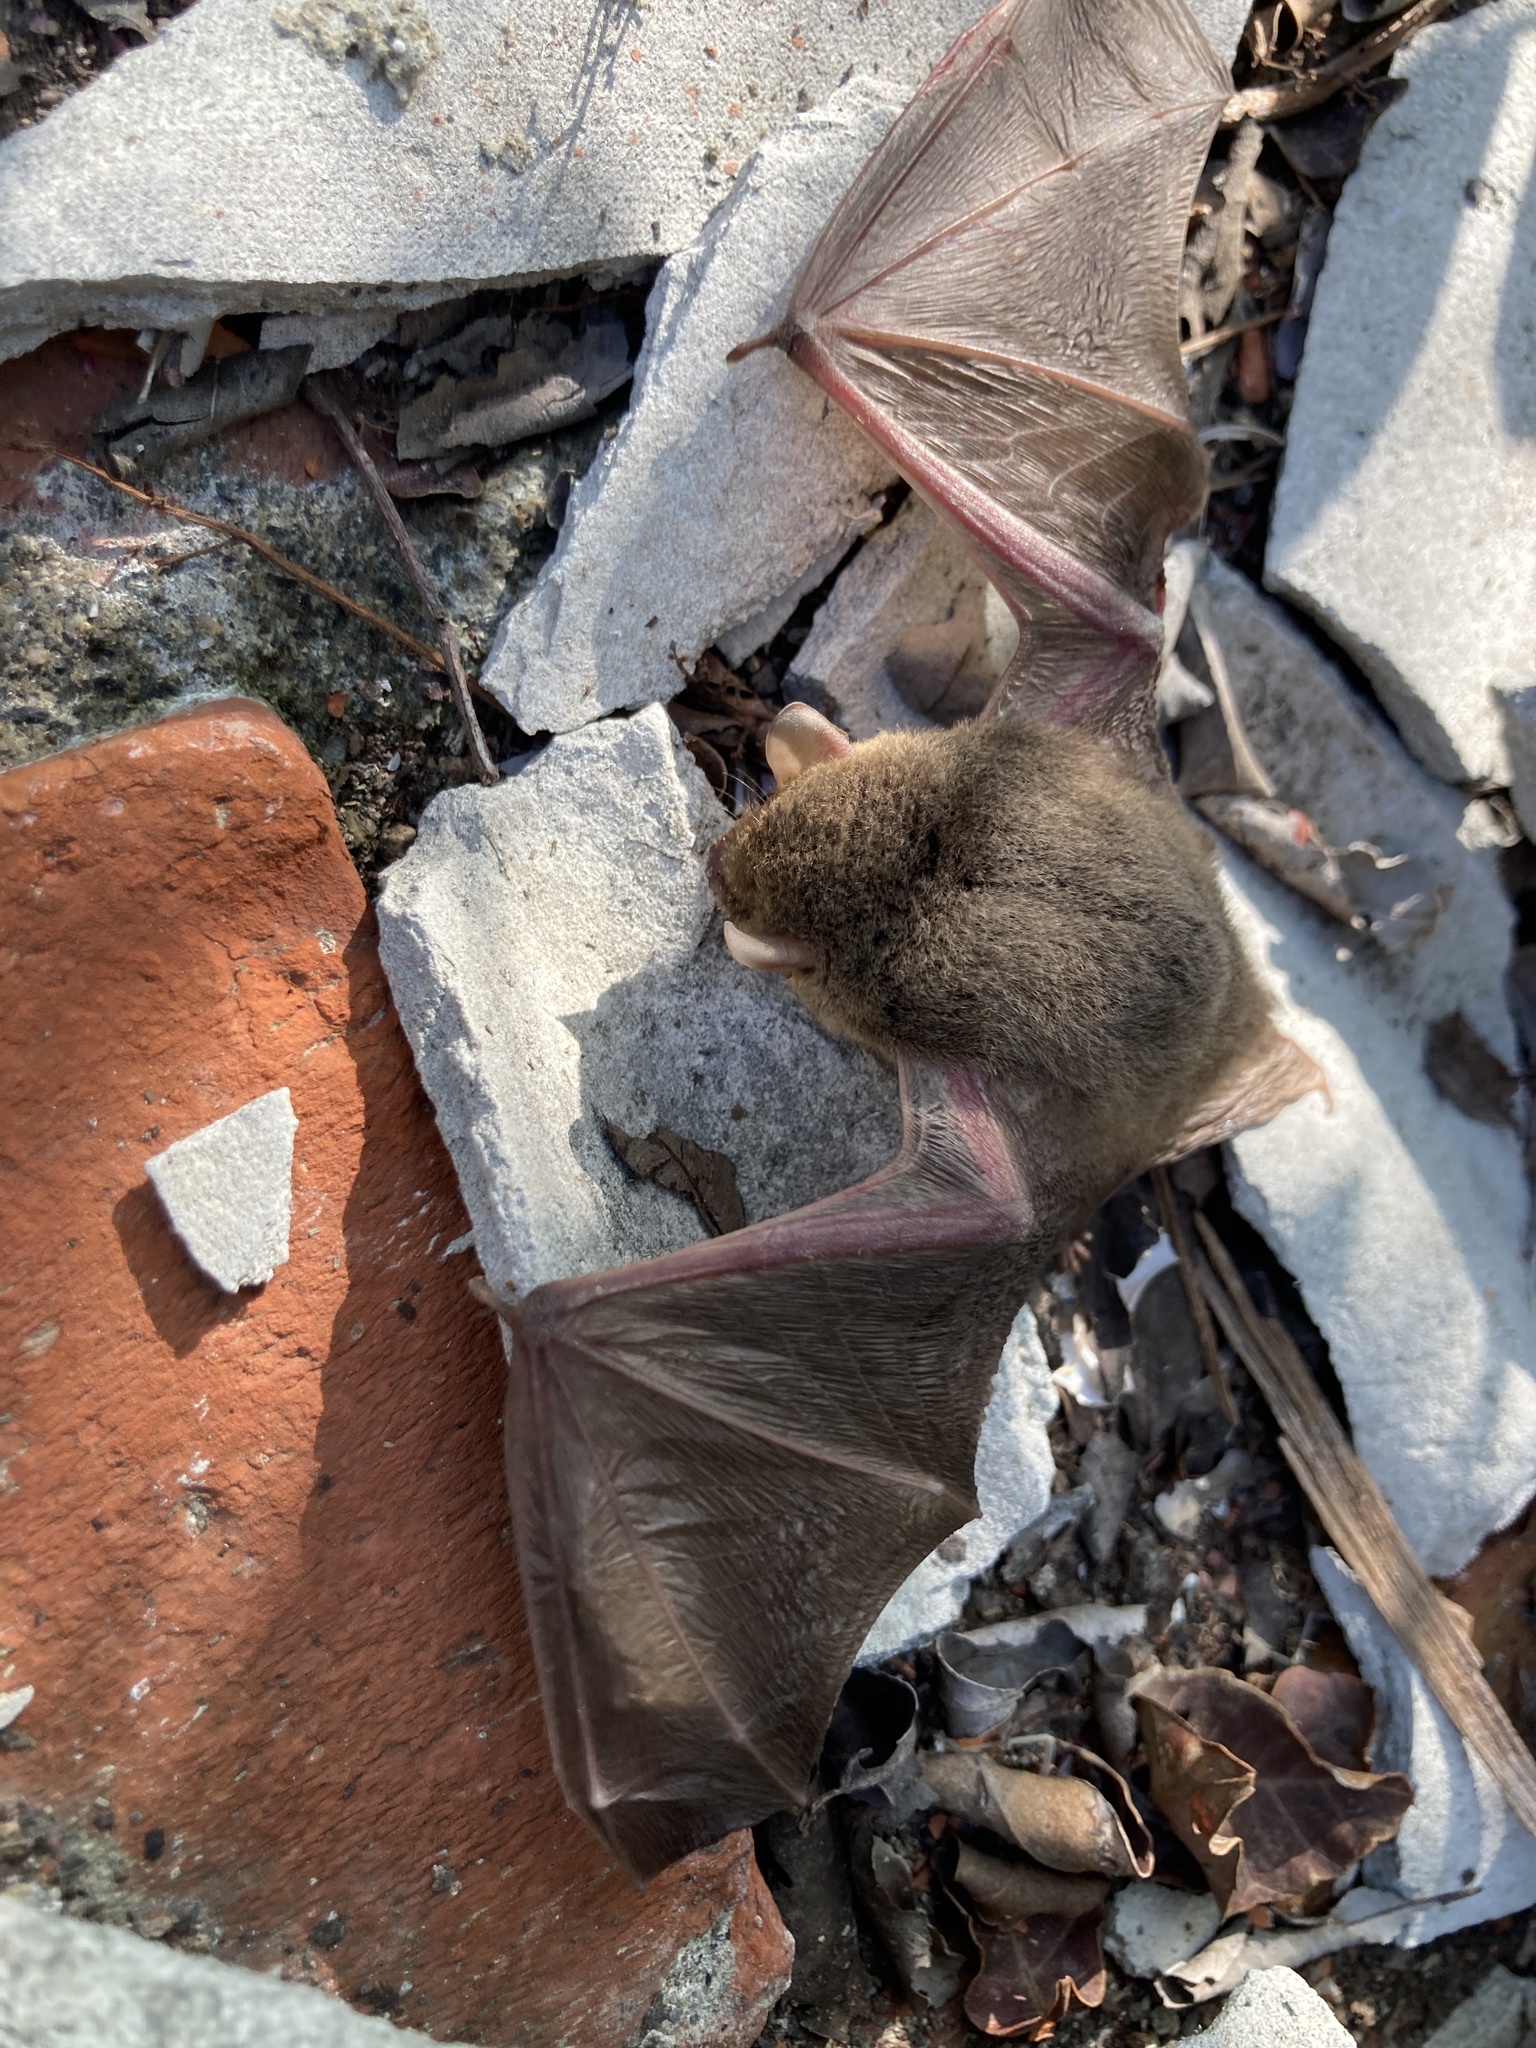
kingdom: Animalia
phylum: Chordata
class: Mammalia
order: Chiroptera
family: Vespertilionidae
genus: Pipistrellus
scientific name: Pipistrellus abramus
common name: Japanese pipistrelle
